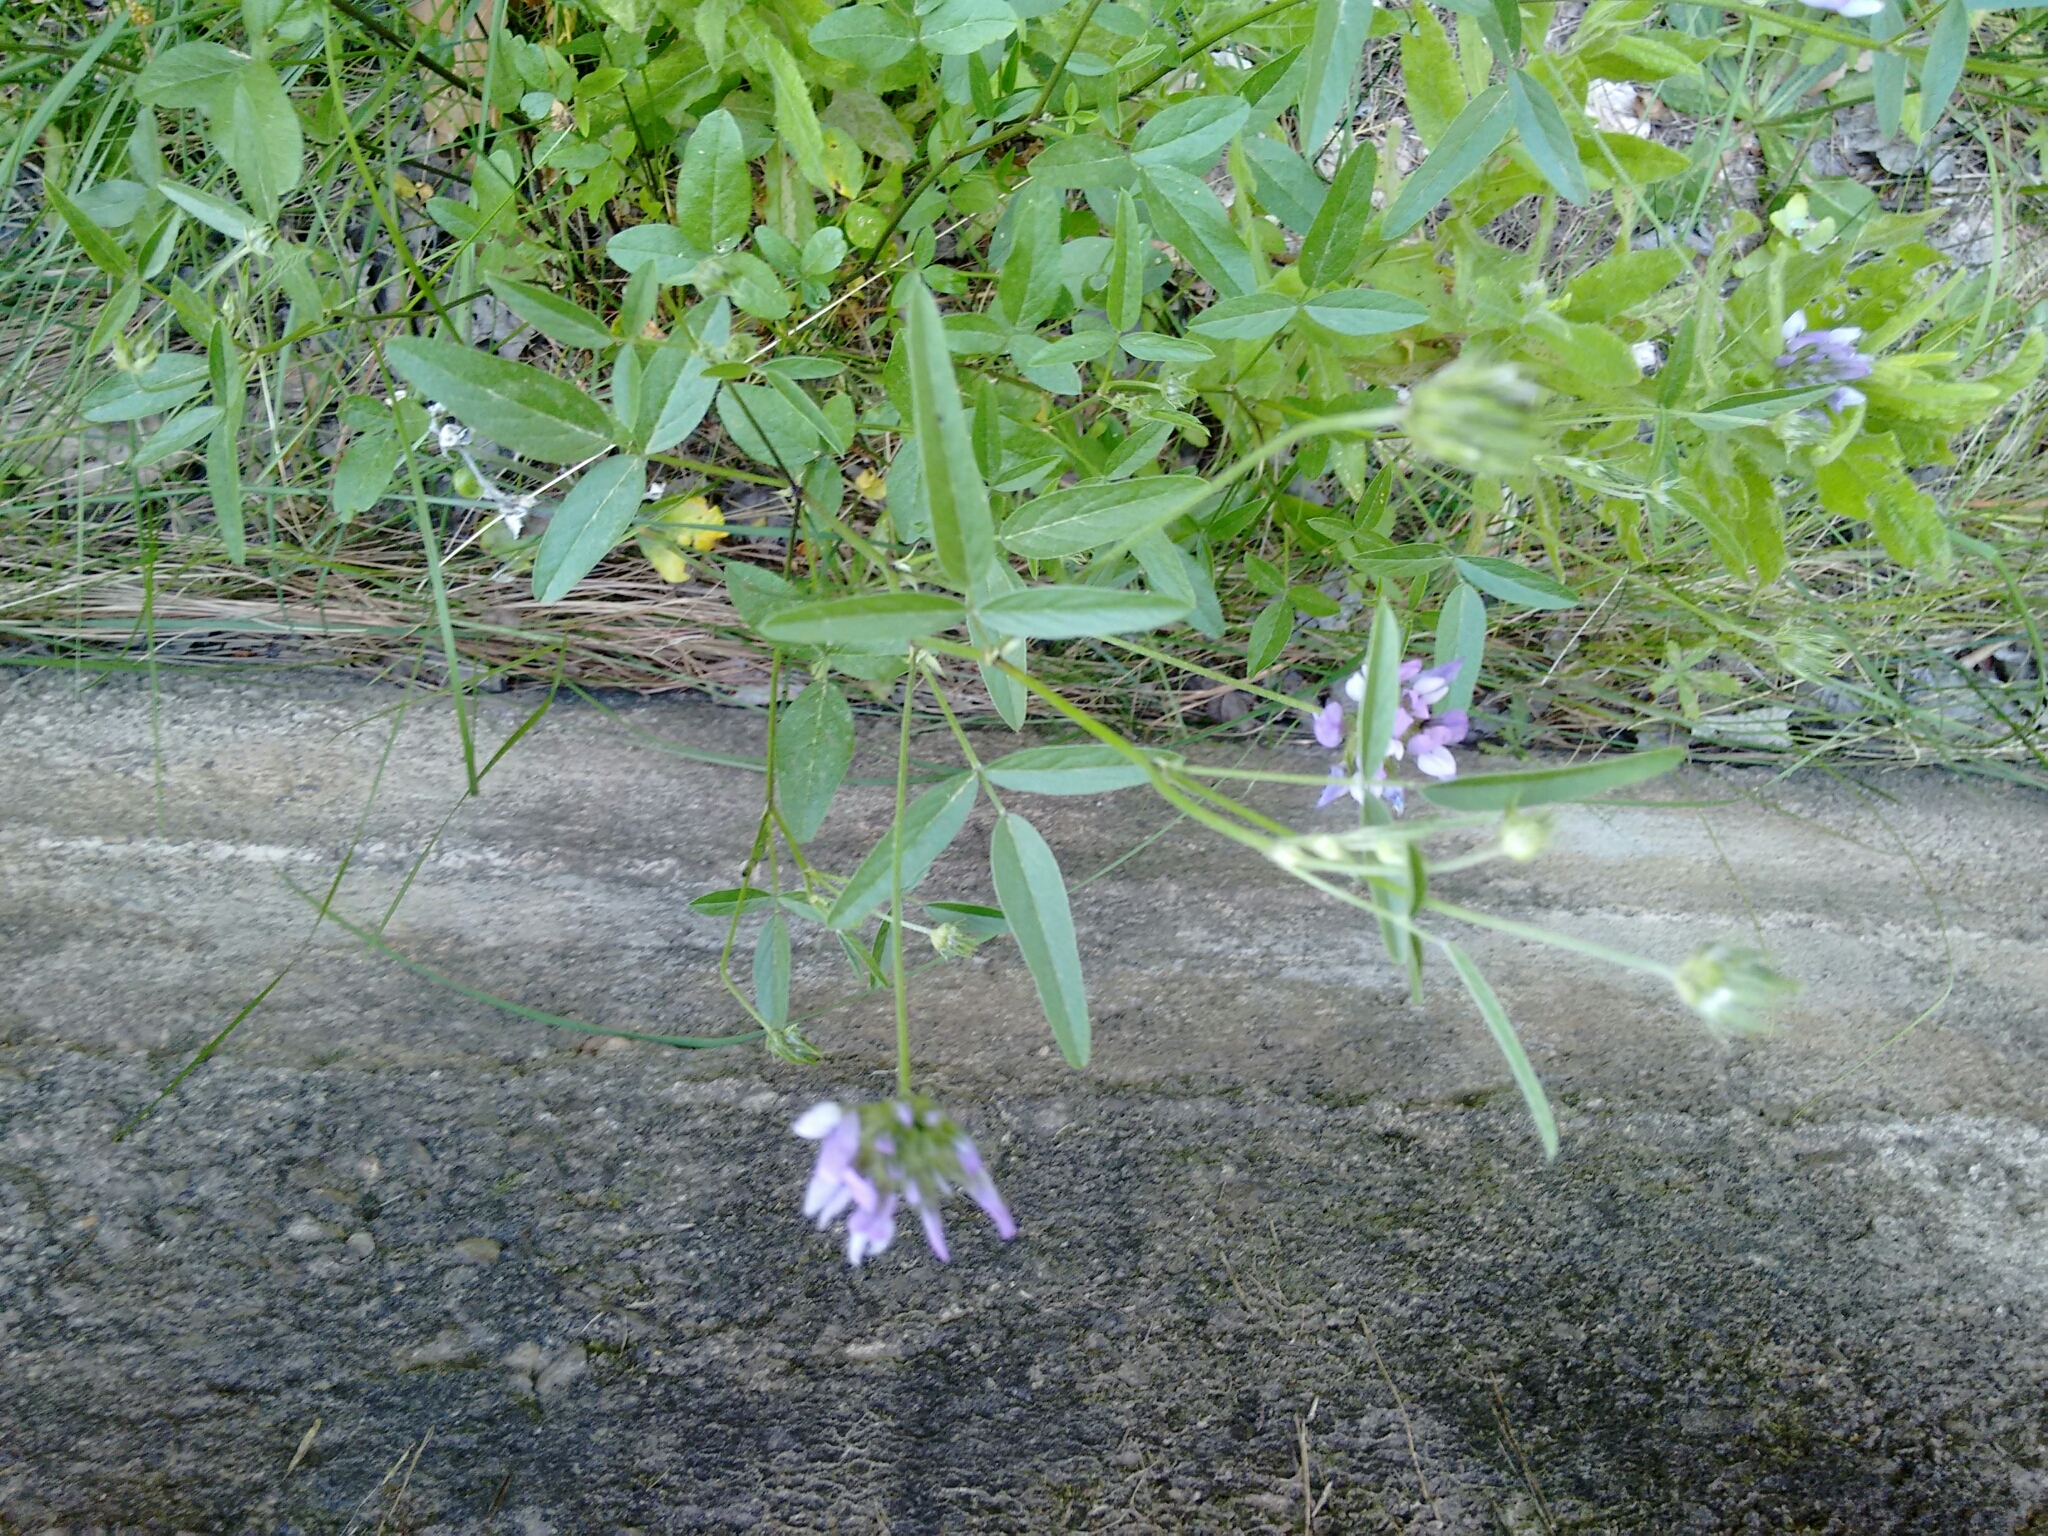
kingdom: Plantae
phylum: Tracheophyta
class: Magnoliopsida
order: Fabales
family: Fabaceae
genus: Bituminaria
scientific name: Bituminaria bituminosa
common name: Arabian pea
